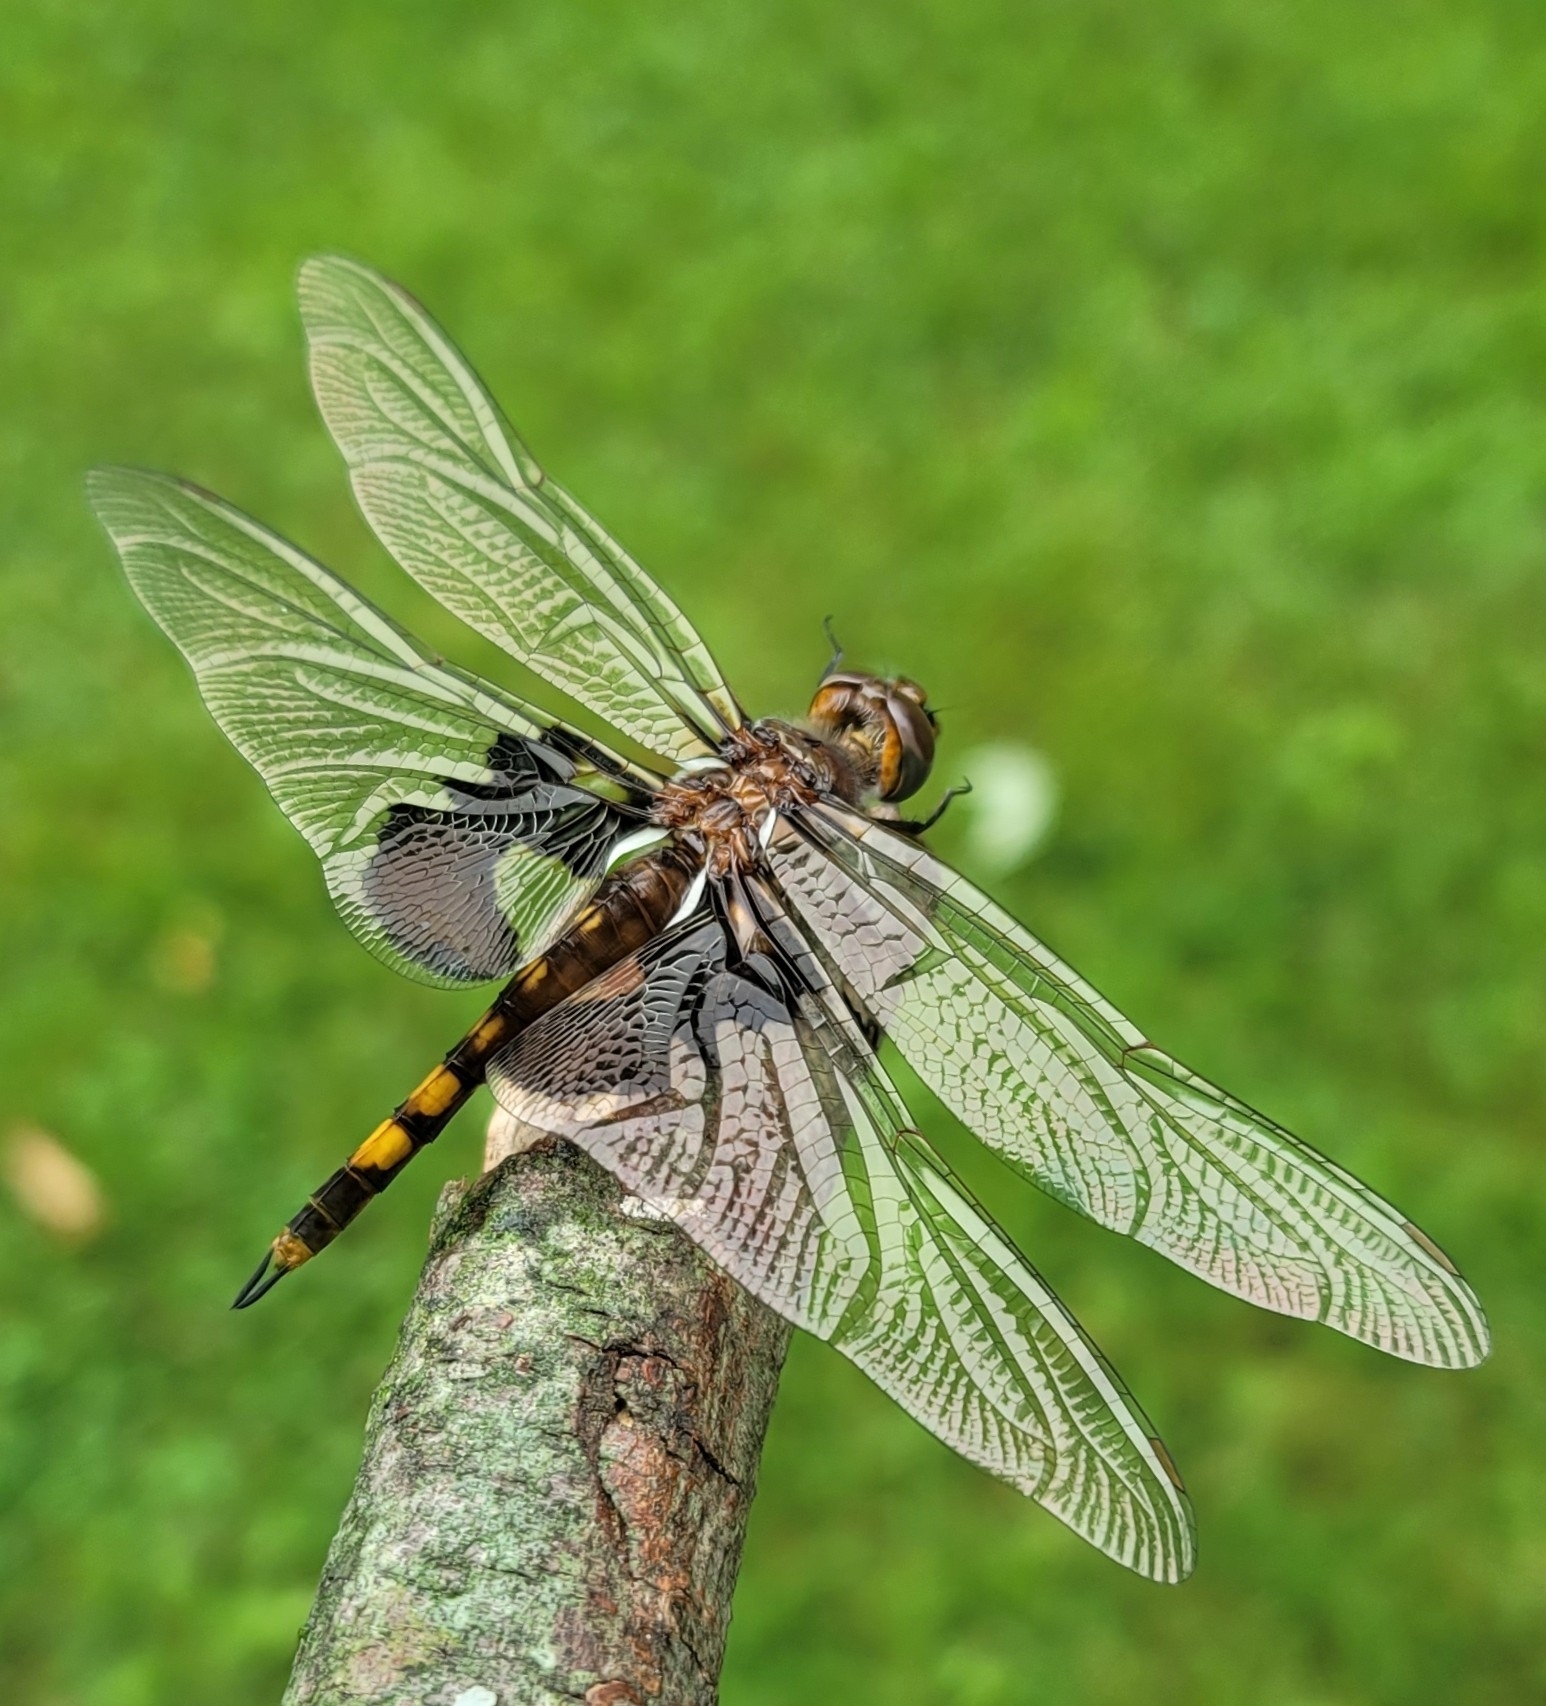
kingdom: Animalia
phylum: Arthropoda
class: Insecta
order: Odonata
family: Libellulidae
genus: Tramea
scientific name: Tramea lacerata
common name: Black saddlebags
